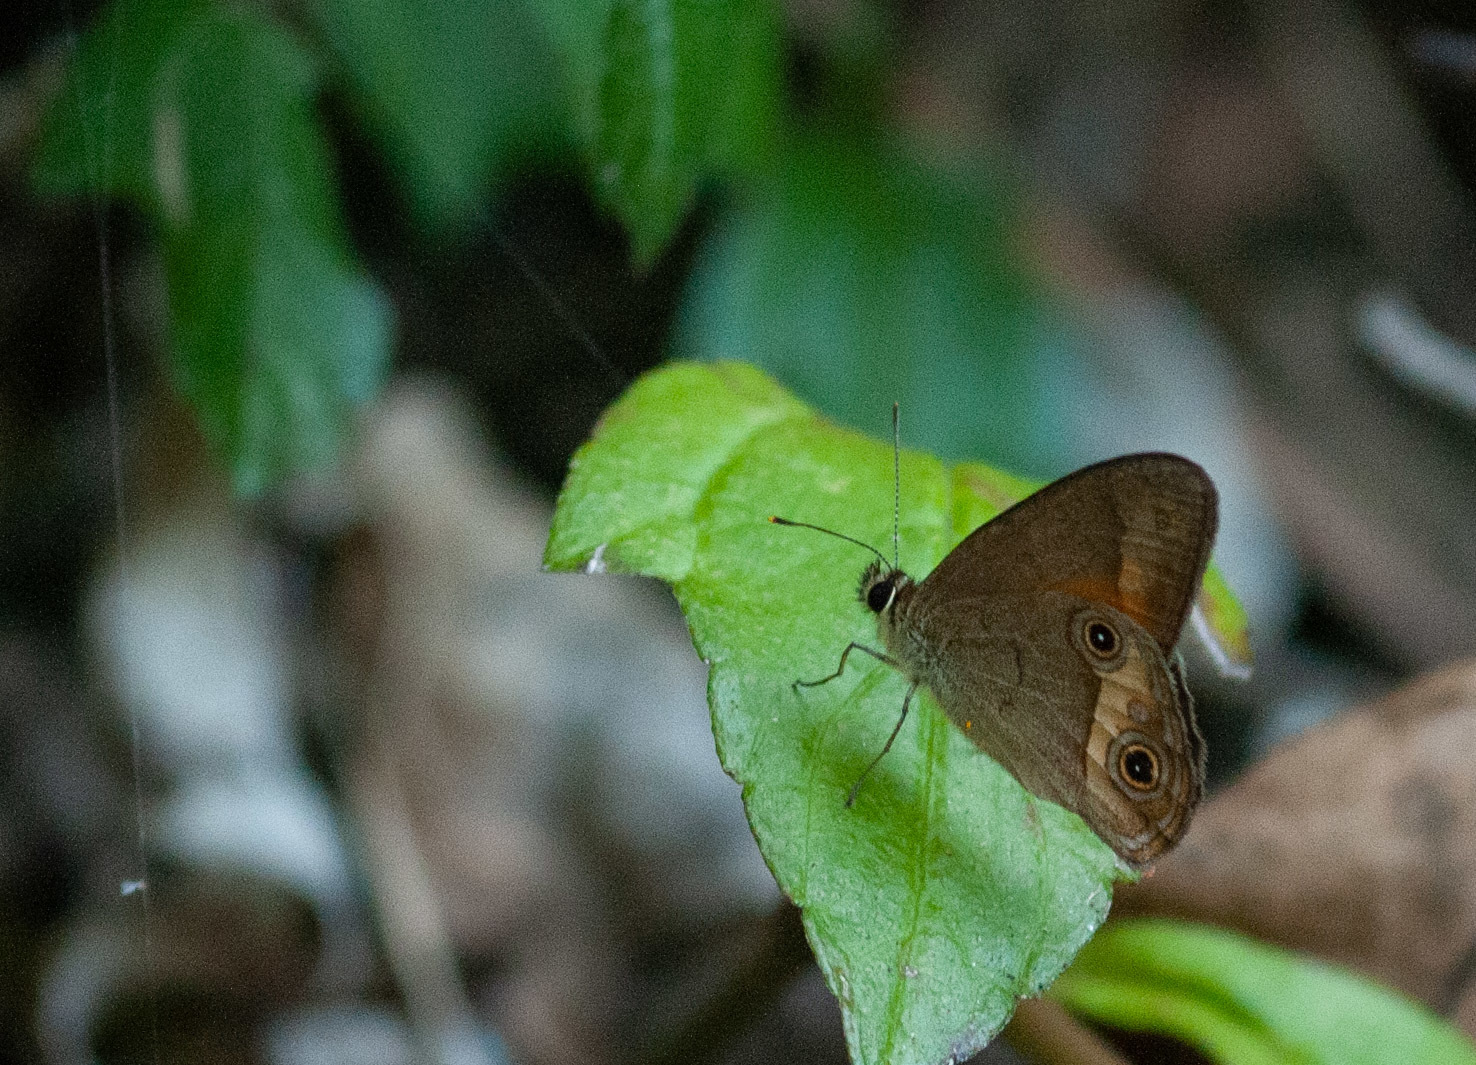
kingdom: Animalia
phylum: Arthropoda
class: Insecta
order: Lepidoptera
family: Nymphalidae
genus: Hypocysta
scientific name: Hypocysta metirius
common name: Brown ringlet
